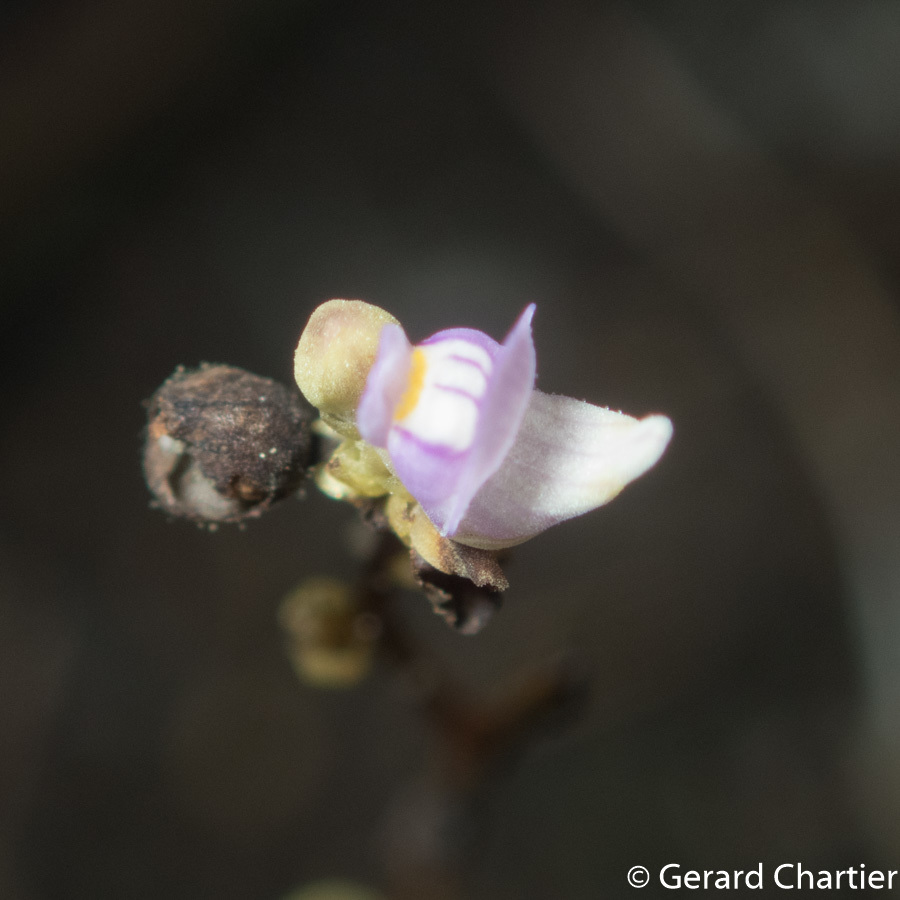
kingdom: Plantae
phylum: Tracheophyta
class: Magnoliopsida
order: Lamiales
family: Lentibulariaceae
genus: Utricularia
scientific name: Utricularia caerulea
